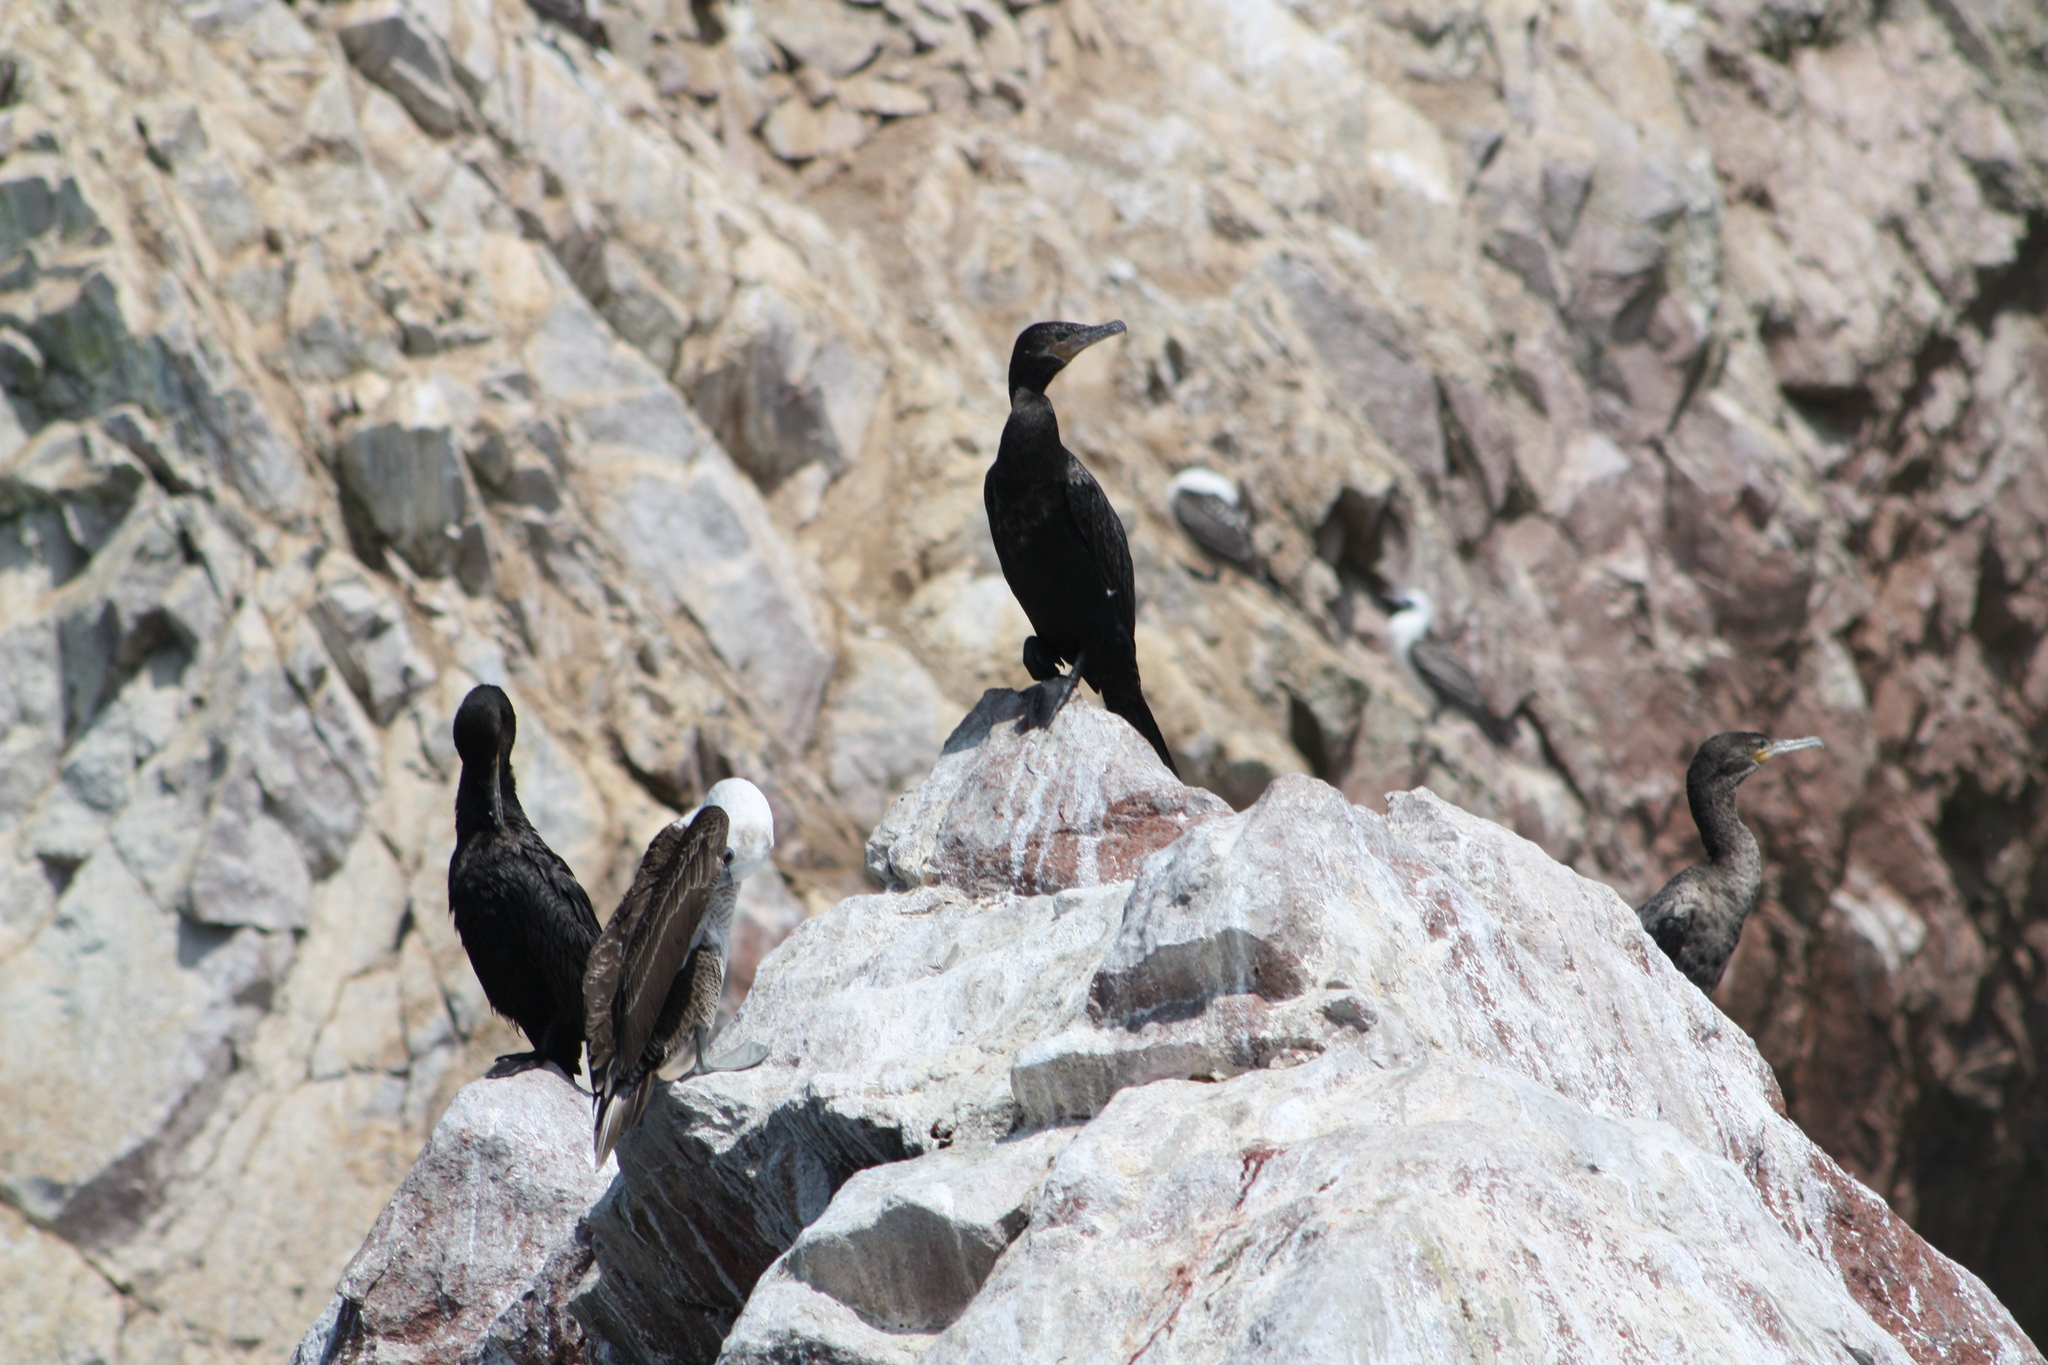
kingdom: Animalia
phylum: Chordata
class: Aves
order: Suliformes
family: Phalacrocoracidae
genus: Phalacrocorax
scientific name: Phalacrocorax brasilianus
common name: Neotropic cormorant
